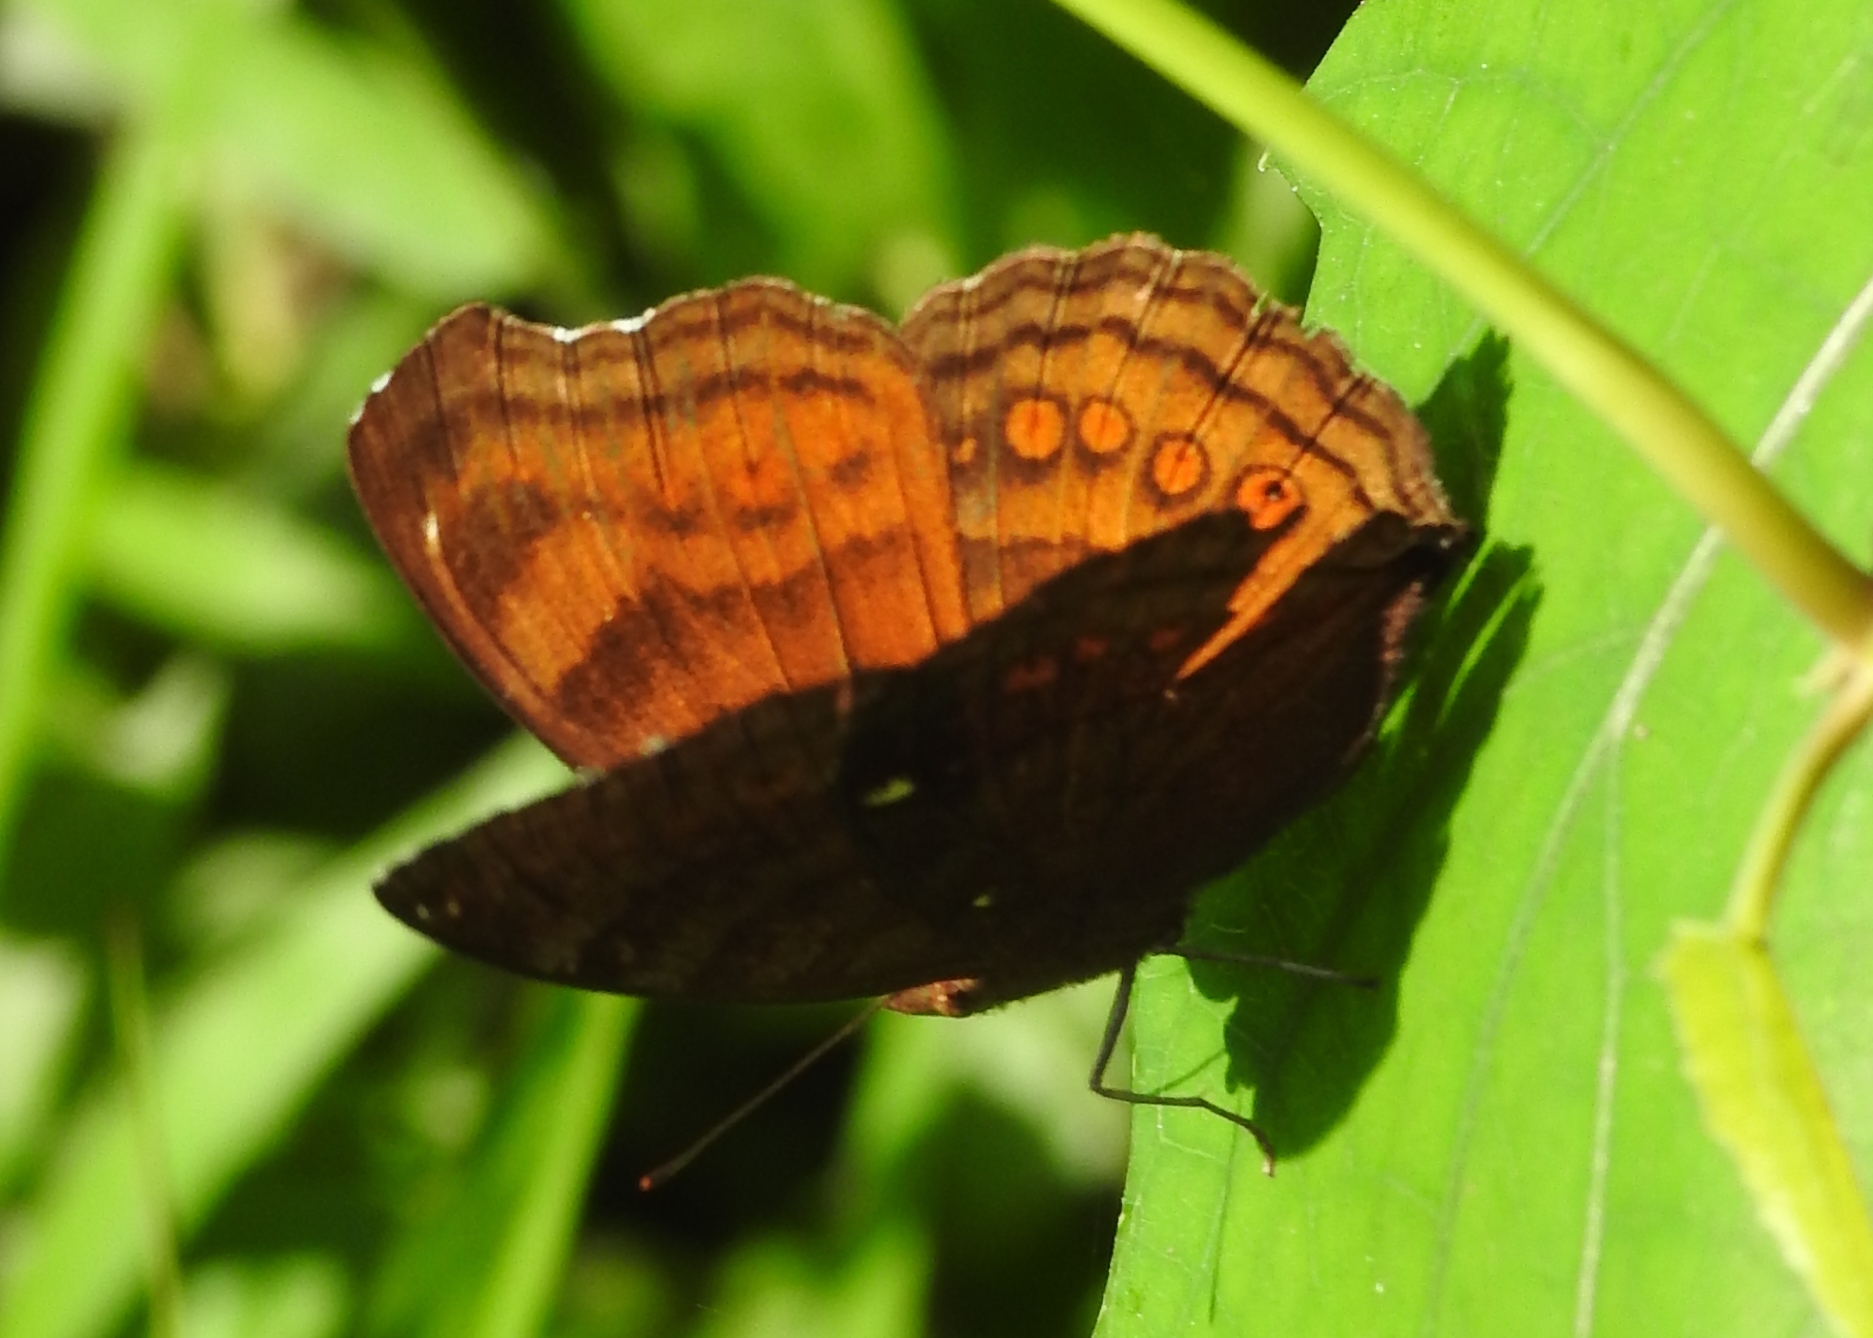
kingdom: Animalia
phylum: Arthropoda
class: Insecta
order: Lepidoptera
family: Nymphalidae
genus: Junonia
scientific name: Junonia hedonia
